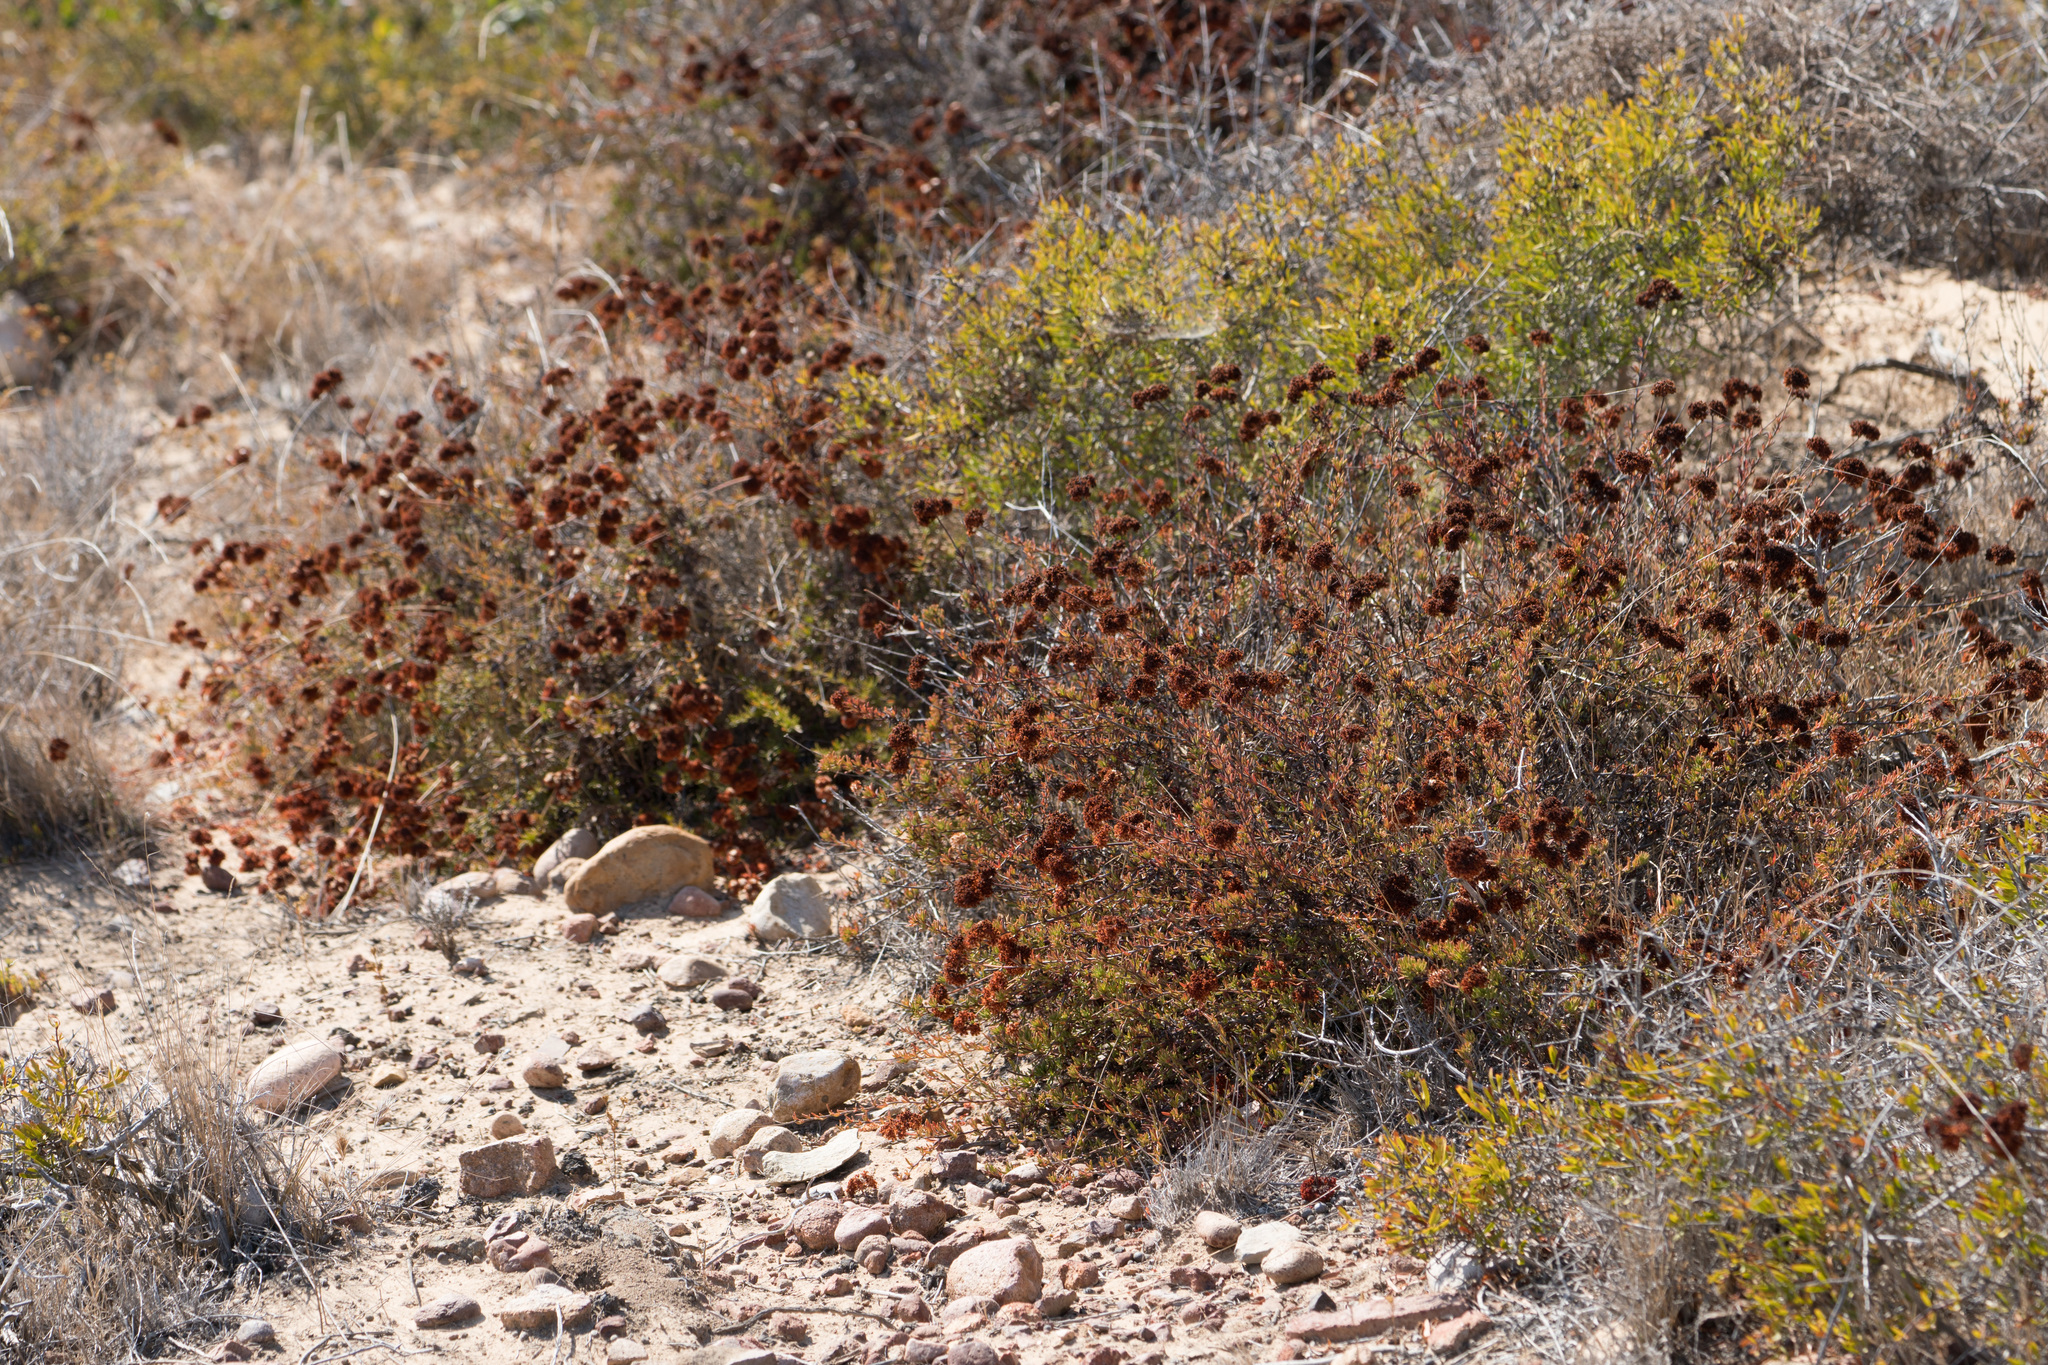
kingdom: Plantae
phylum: Tracheophyta
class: Magnoliopsida
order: Caryophyllales
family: Polygonaceae
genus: Eriogonum
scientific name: Eriogonum fasciculatum
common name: California wild buckwheat
